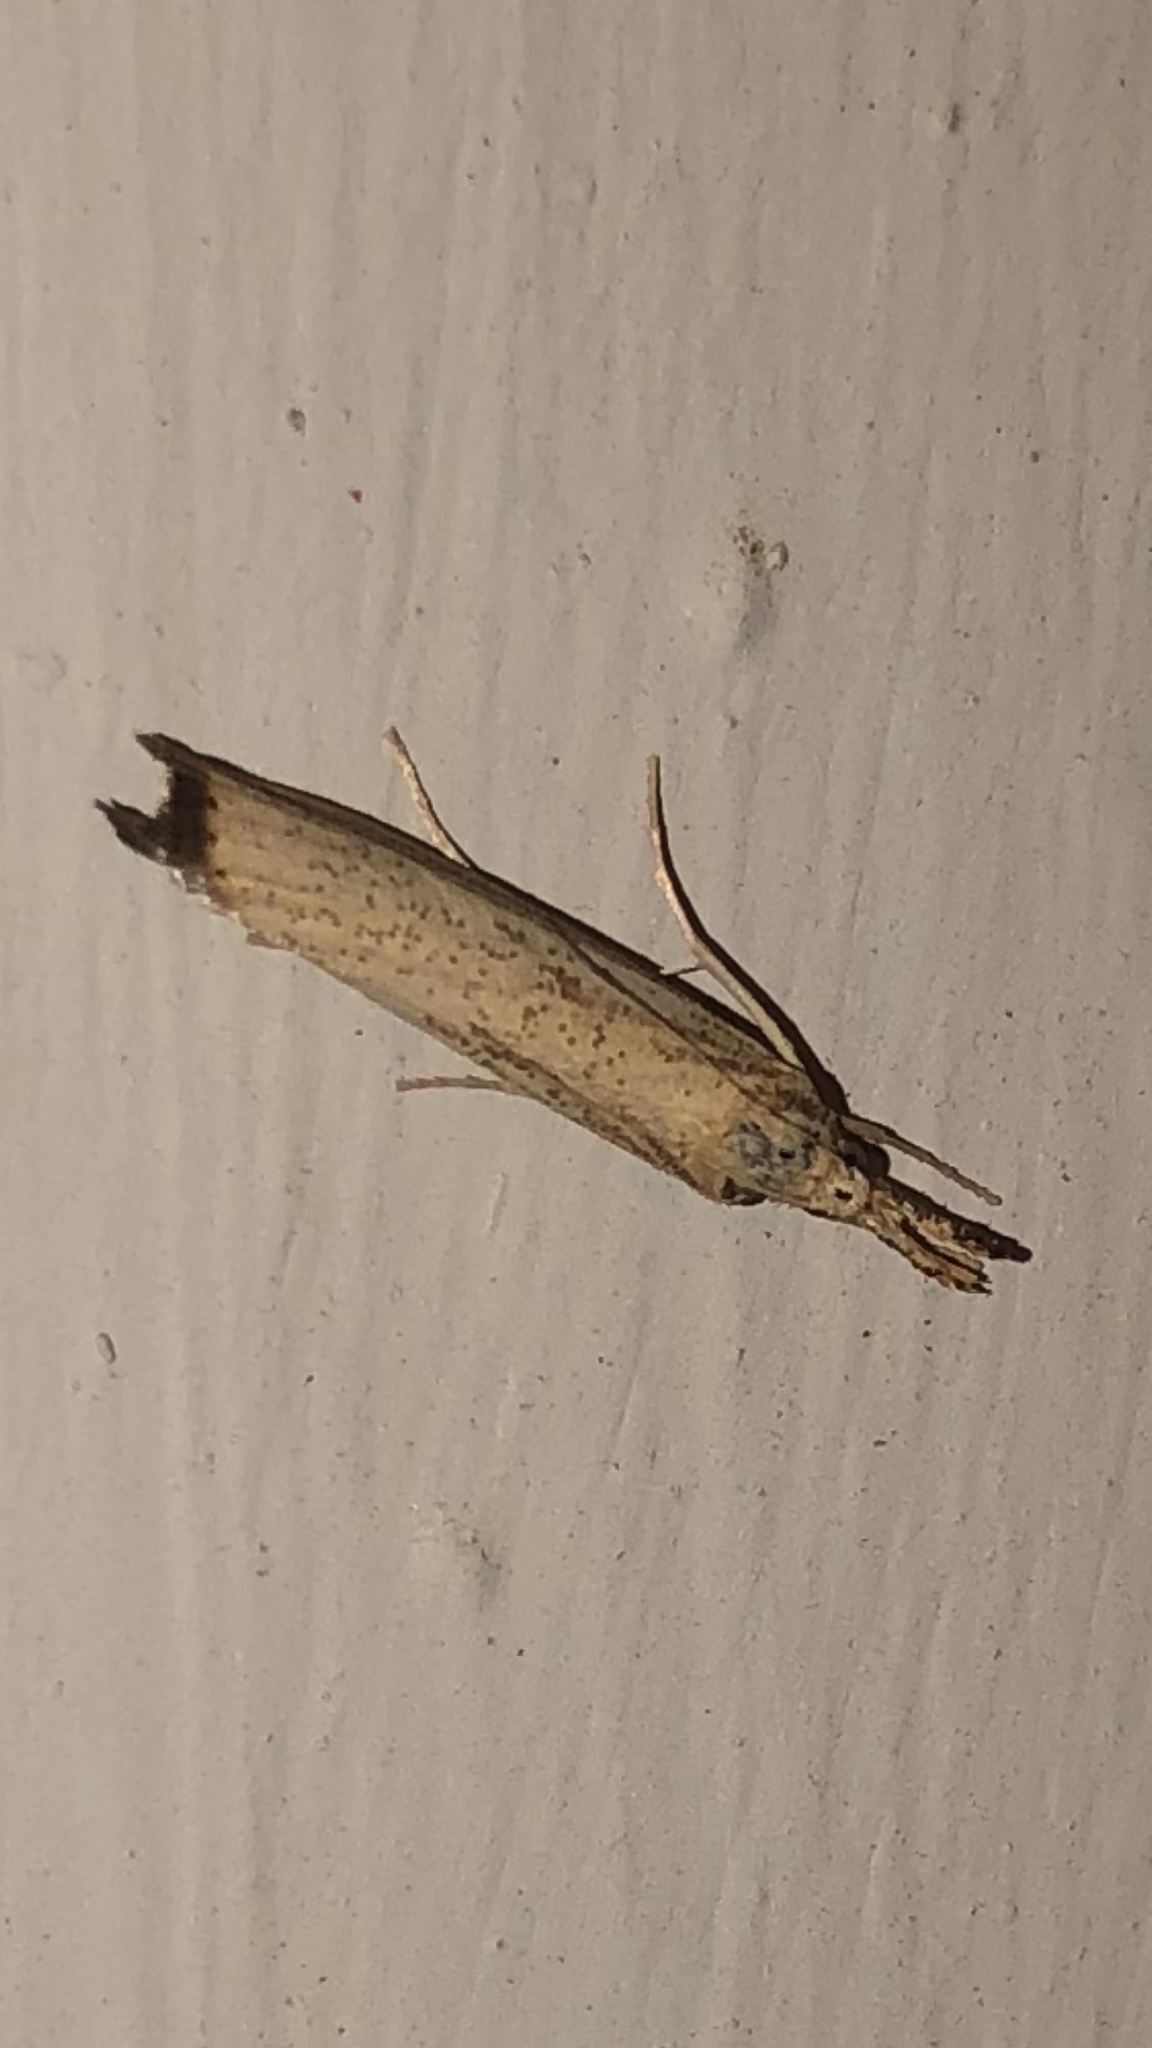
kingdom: Animalia
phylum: Arthropoda
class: Insecta
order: Lepidoptera
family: Crambidae
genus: Agriphila
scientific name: Agriphila vulgivagellus
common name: Vagabond crambus moth
